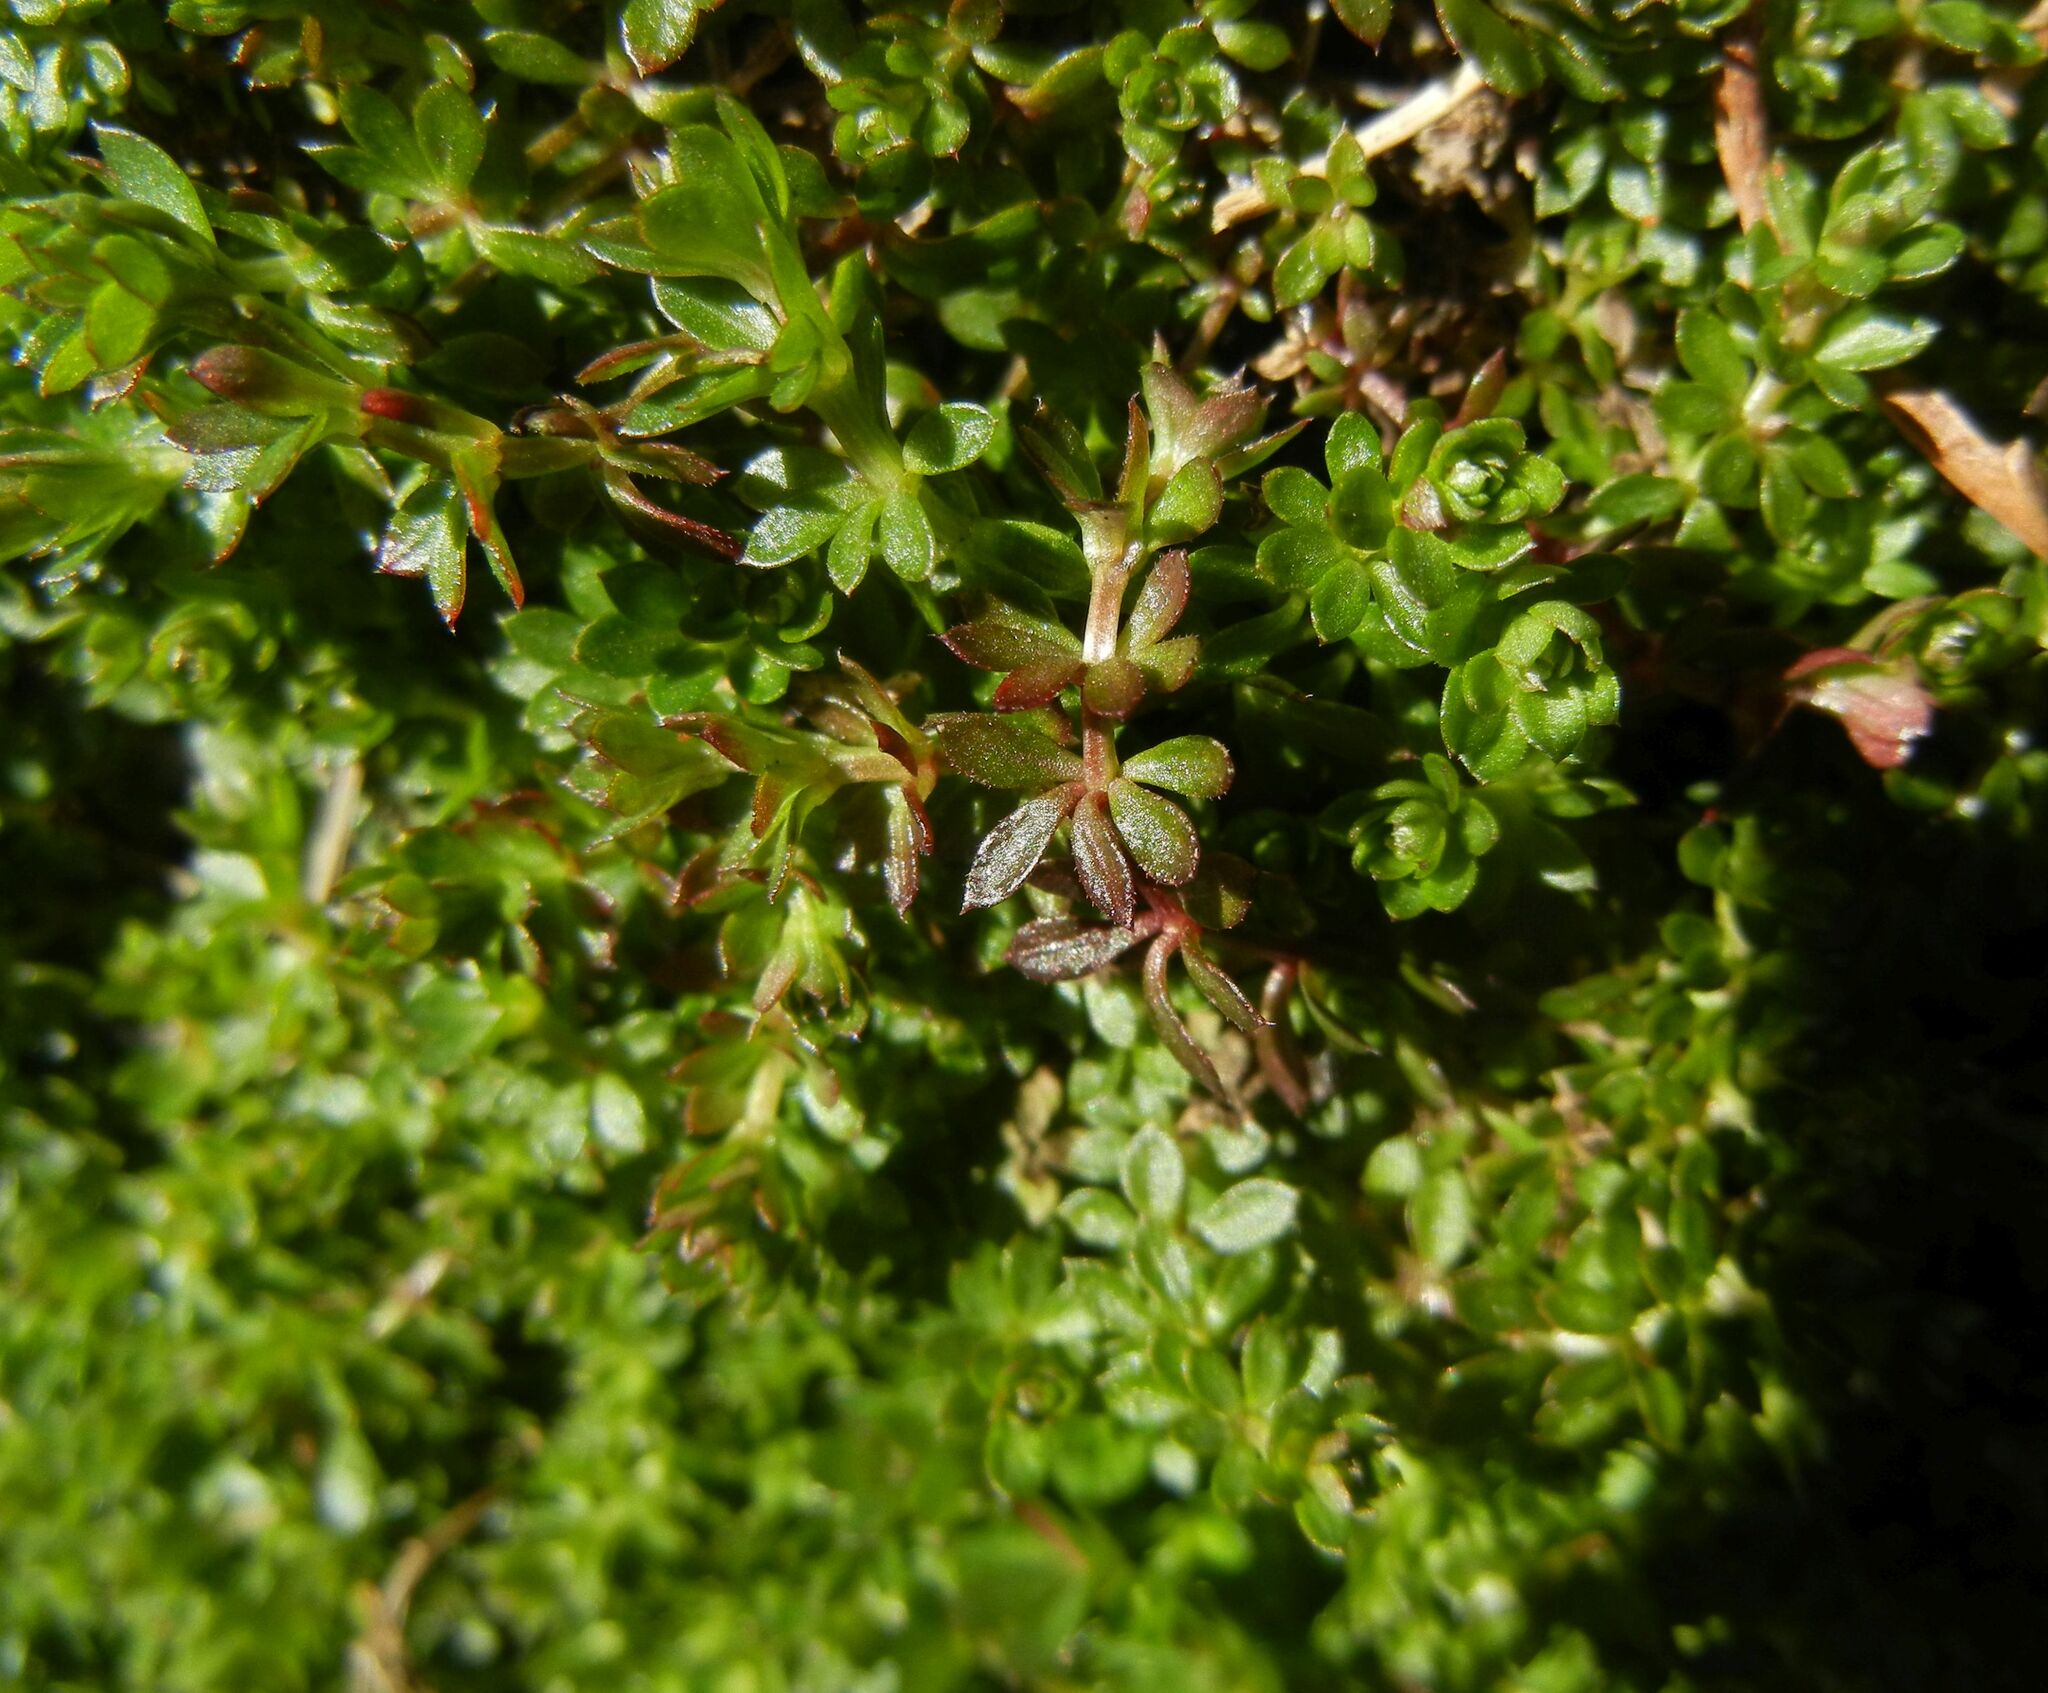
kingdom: Plantae
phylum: Tracheophyta
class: Magnoliopsida
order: Gentianales
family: Rubiaceae
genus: Galium
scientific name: Galium saxatile
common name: Heath bedstraw
